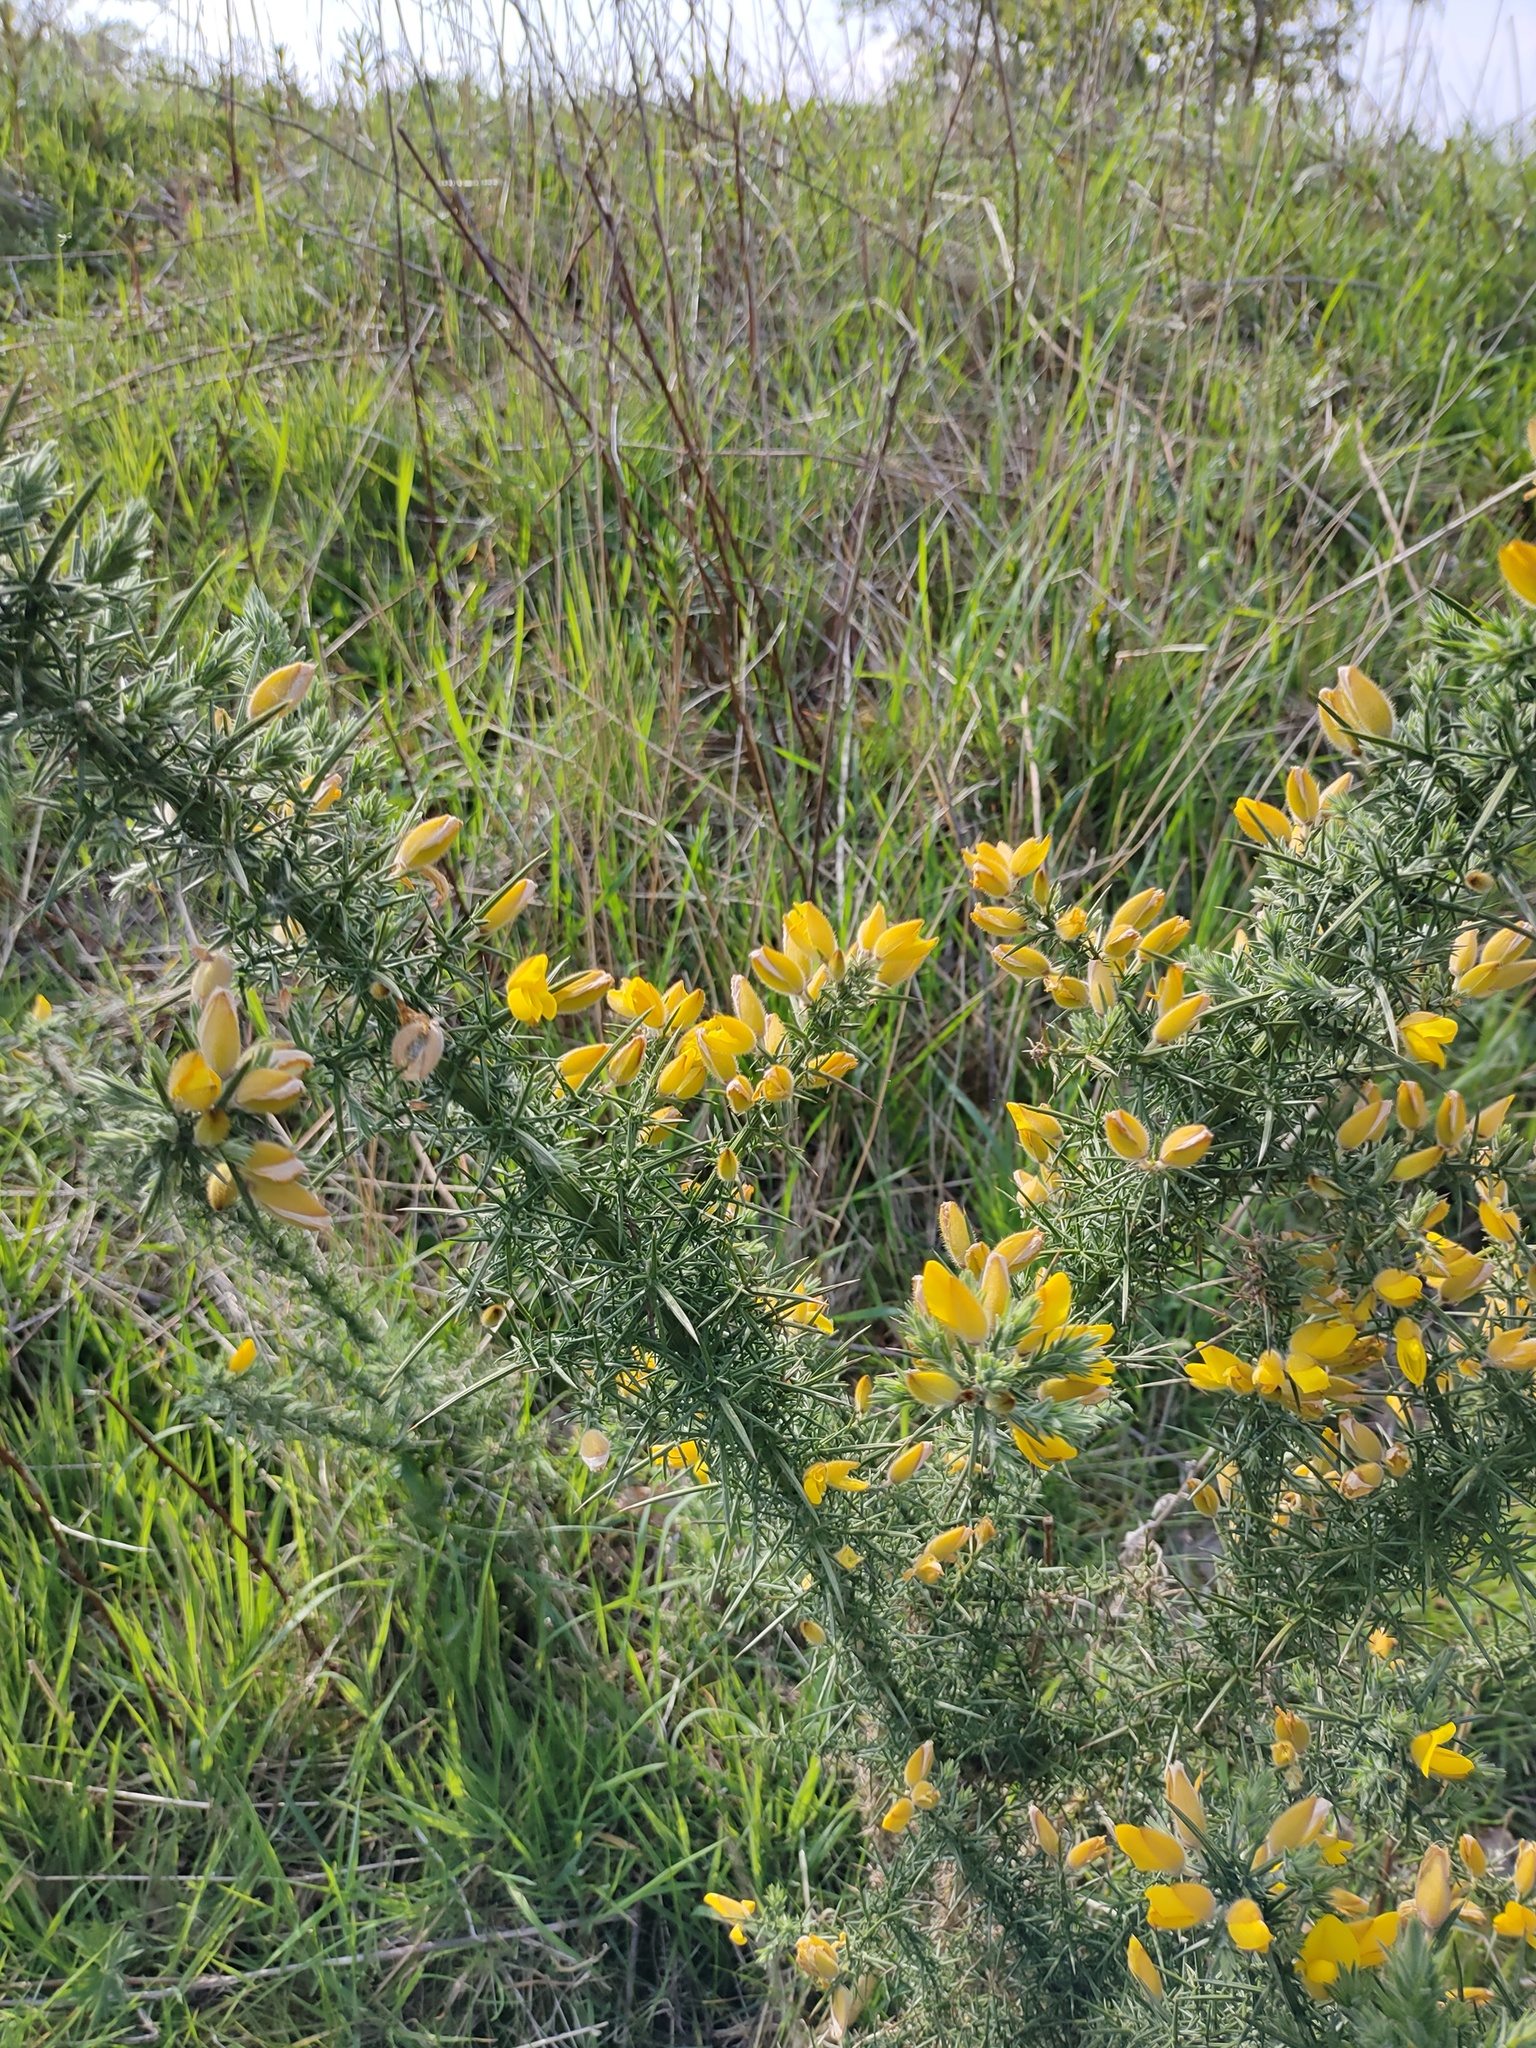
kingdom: Plantae
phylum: Tracheophyta
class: Magnoliopsida
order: Fabales
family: Fabaceae
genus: Ulex
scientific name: Ulex europaeus
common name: Common gorse
